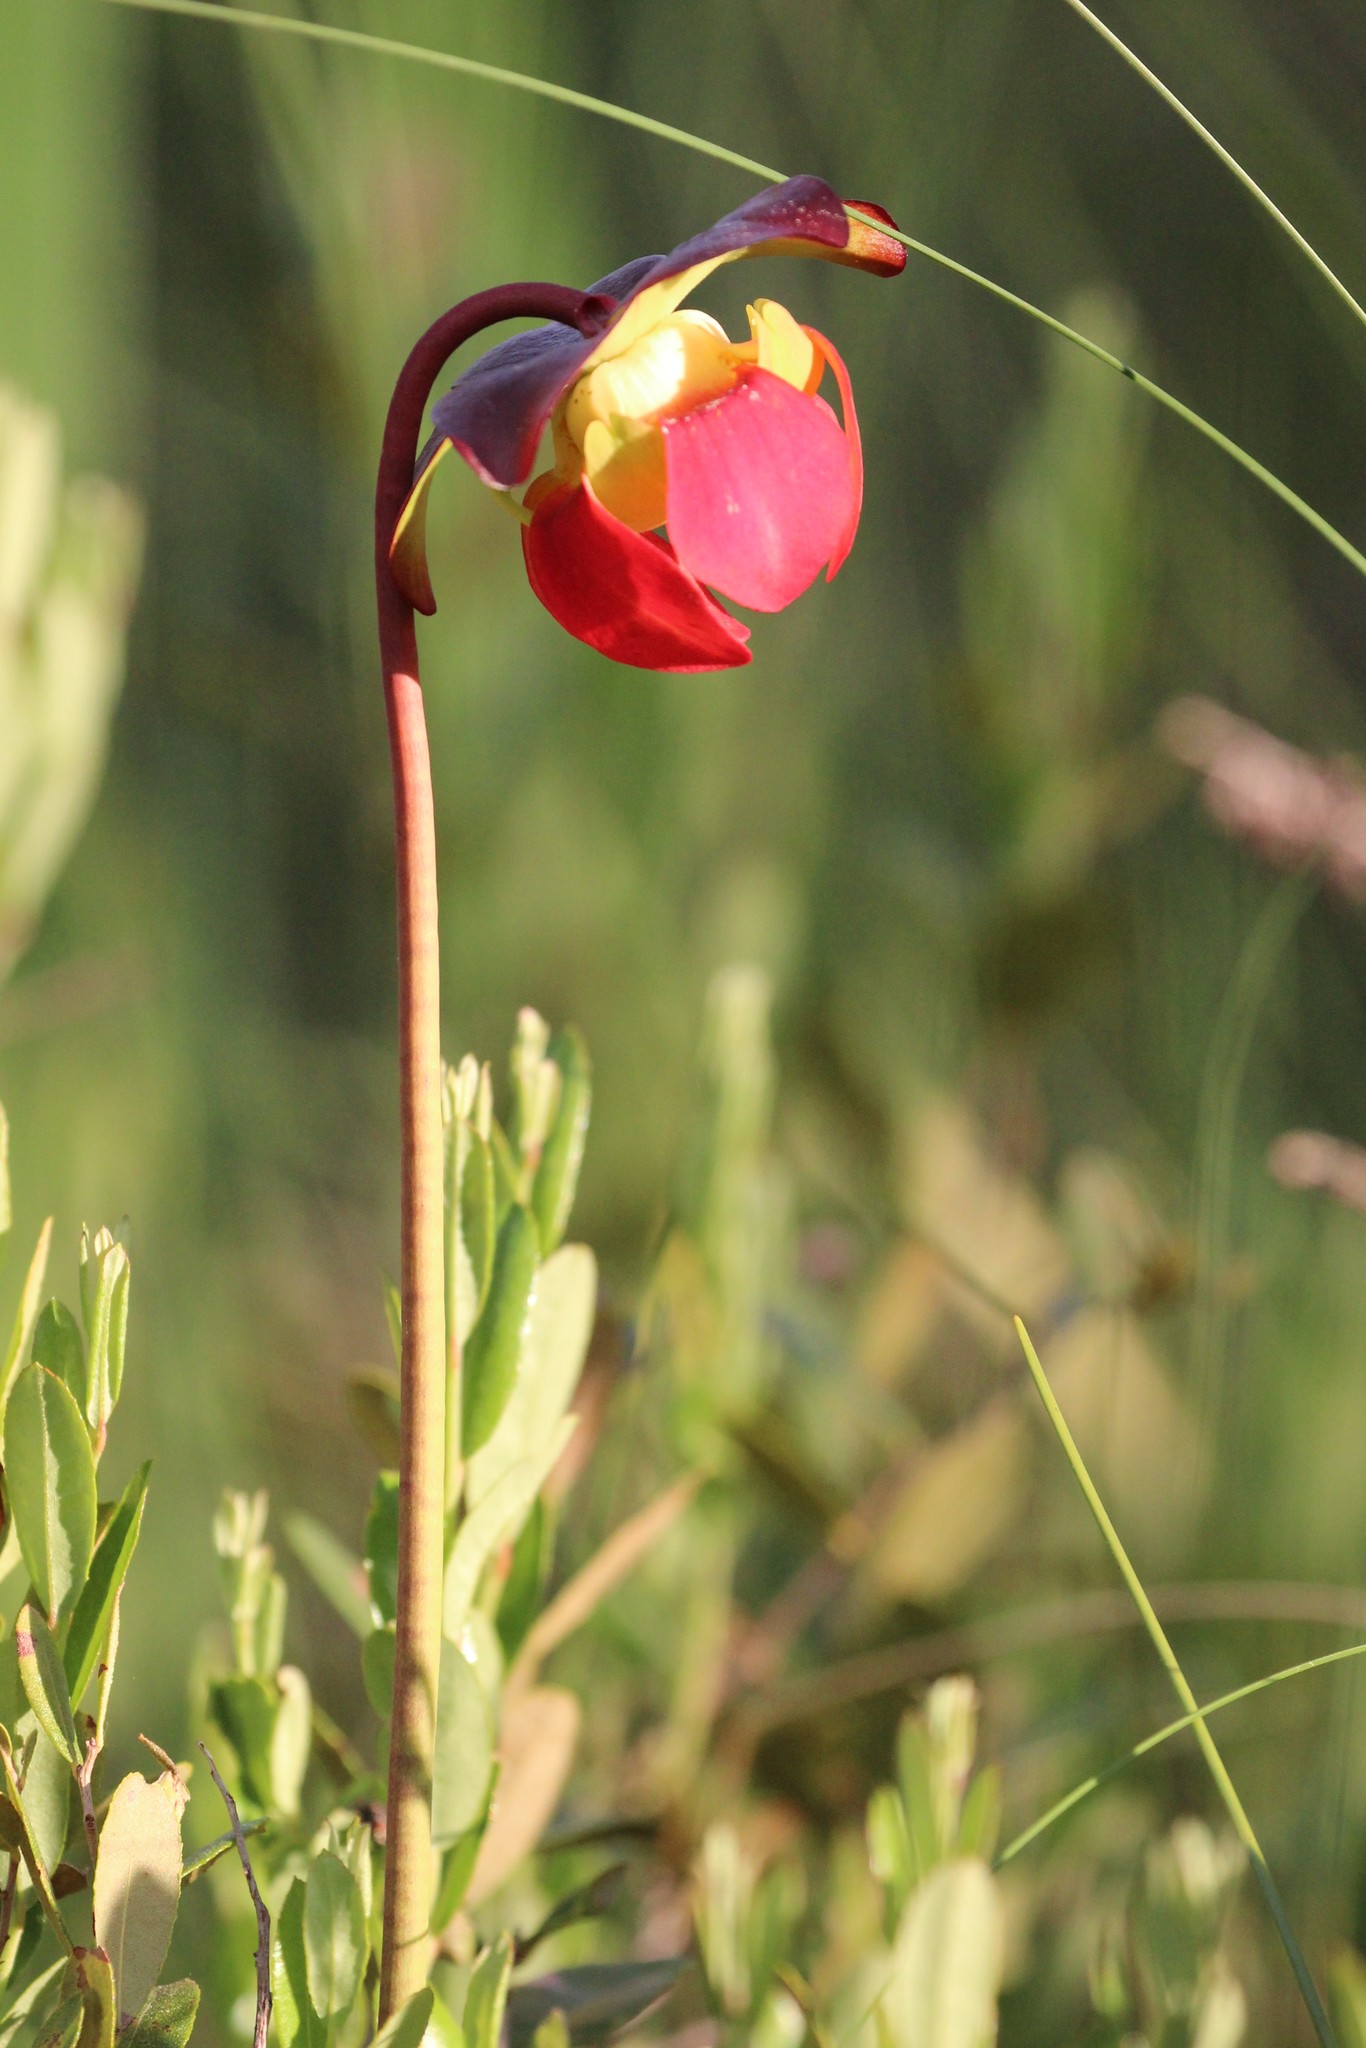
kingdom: Plantae
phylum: Tracheophyta
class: Magnoliopsida
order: Ericales
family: Sarraceniaceae
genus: Sarracenia
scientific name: Sarracenia purpurea
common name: Pitcherplant
